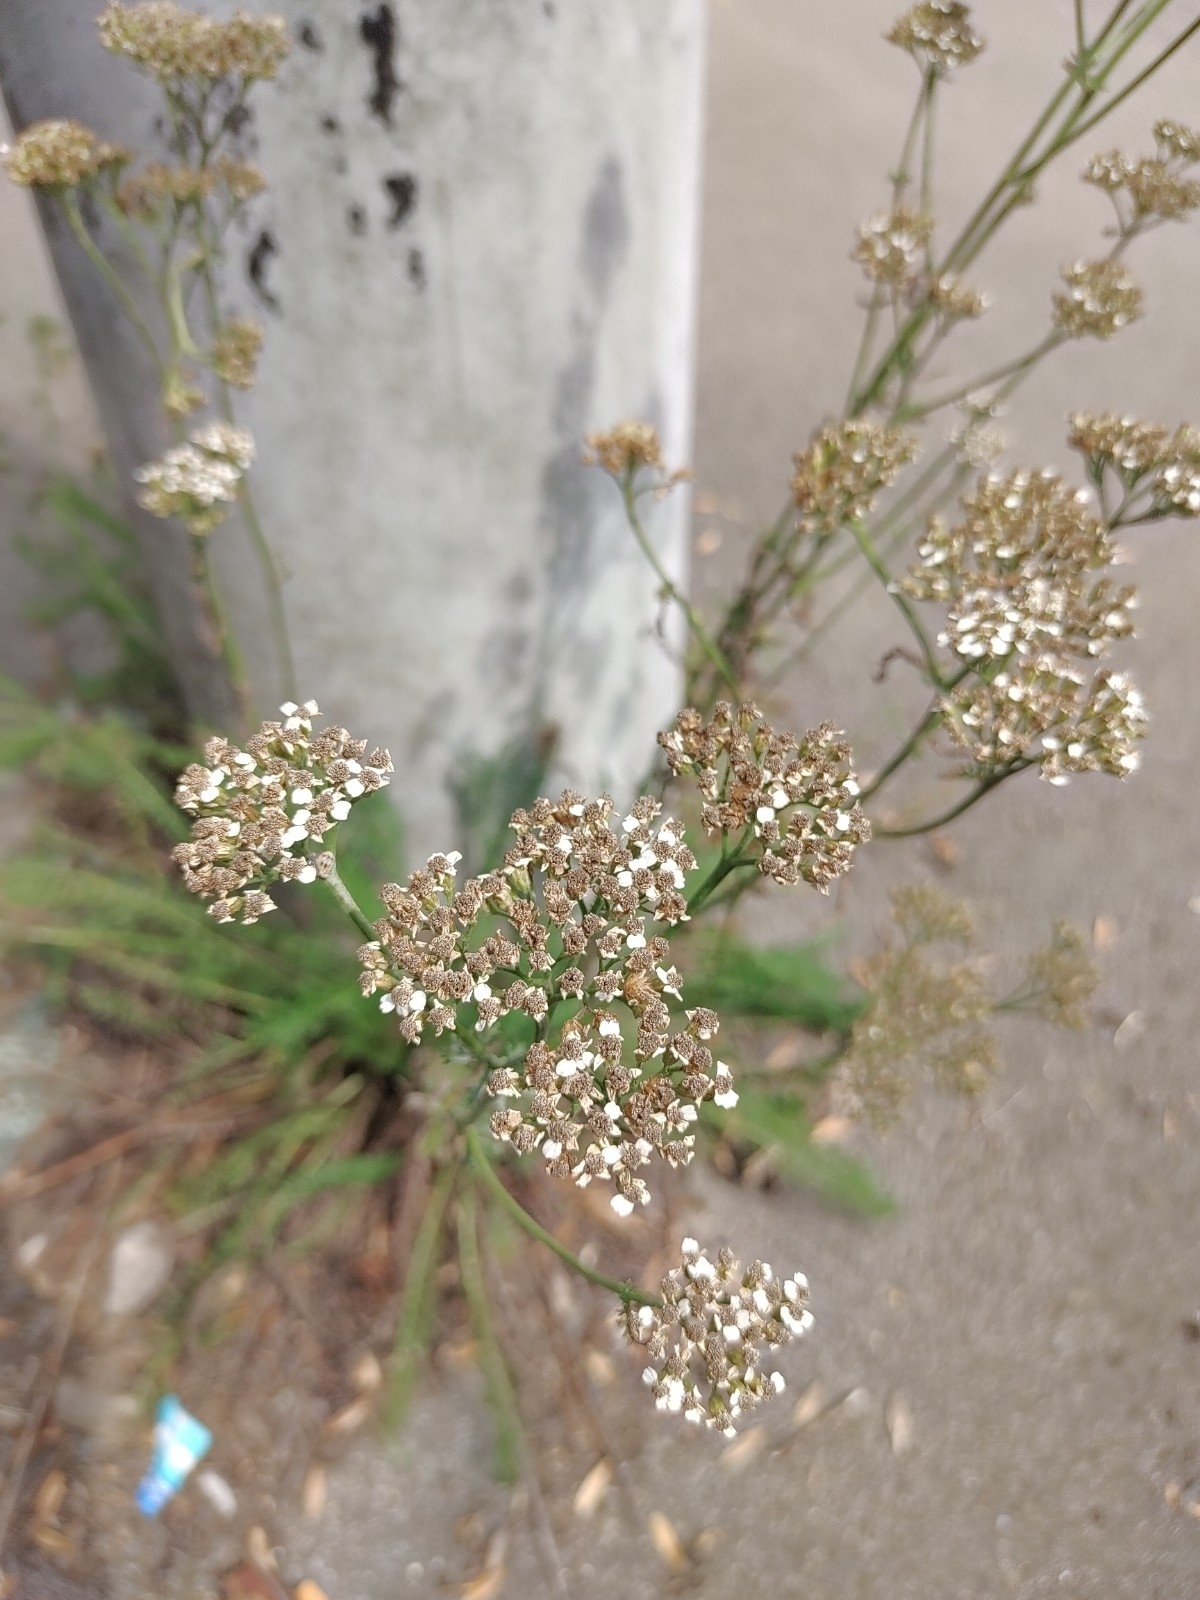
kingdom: Plantae
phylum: Tracheophyta
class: Magnoliopsida
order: Asterales
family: Asteraceae
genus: Achillea
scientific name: Achillea millefolium
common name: Yarrow
